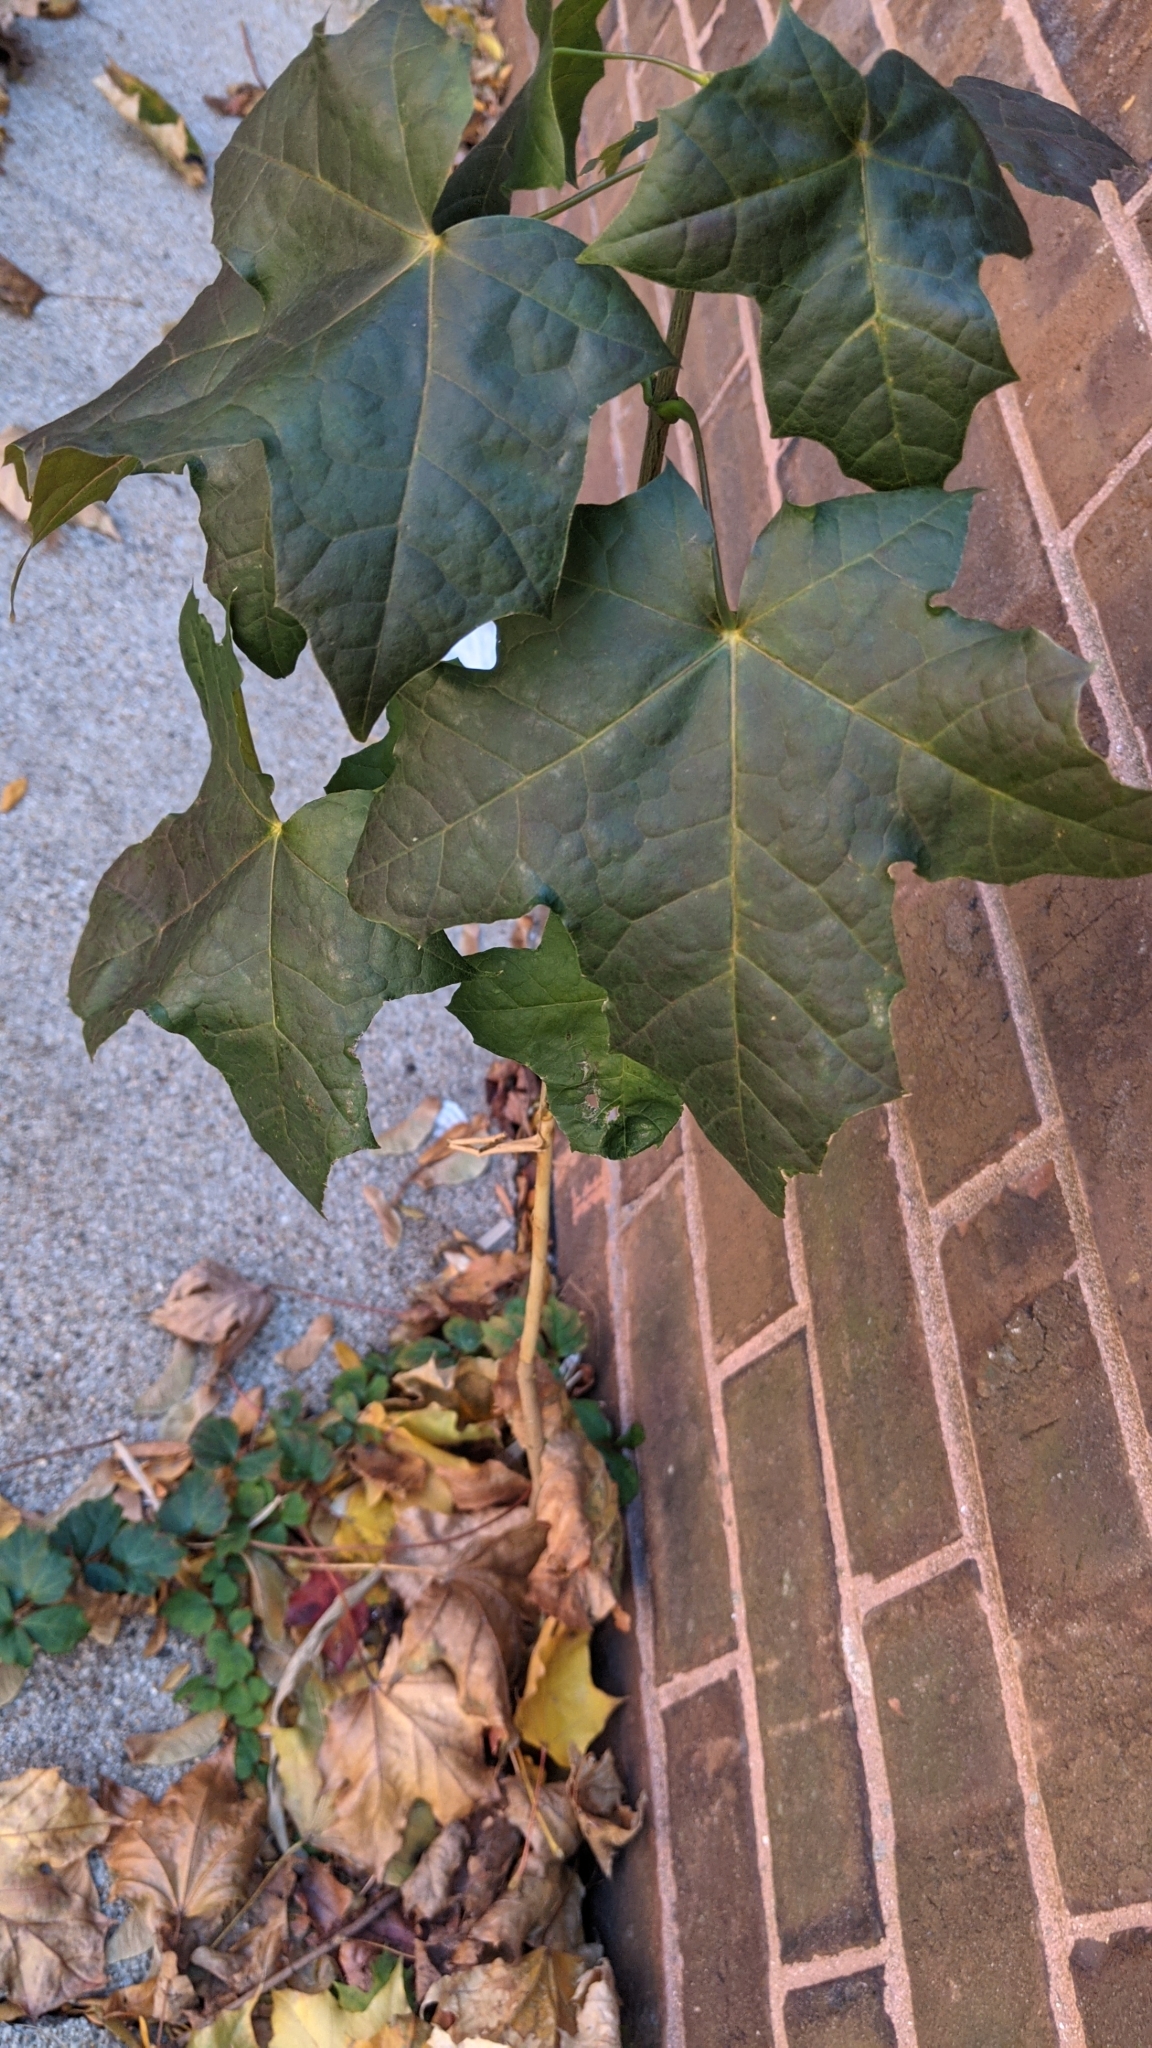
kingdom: Plantae
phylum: Tracheophyta
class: Magnoliopsida
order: Sapindales
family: Sapindaceae
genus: Acer
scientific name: Acer platanoides
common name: Norway maple
